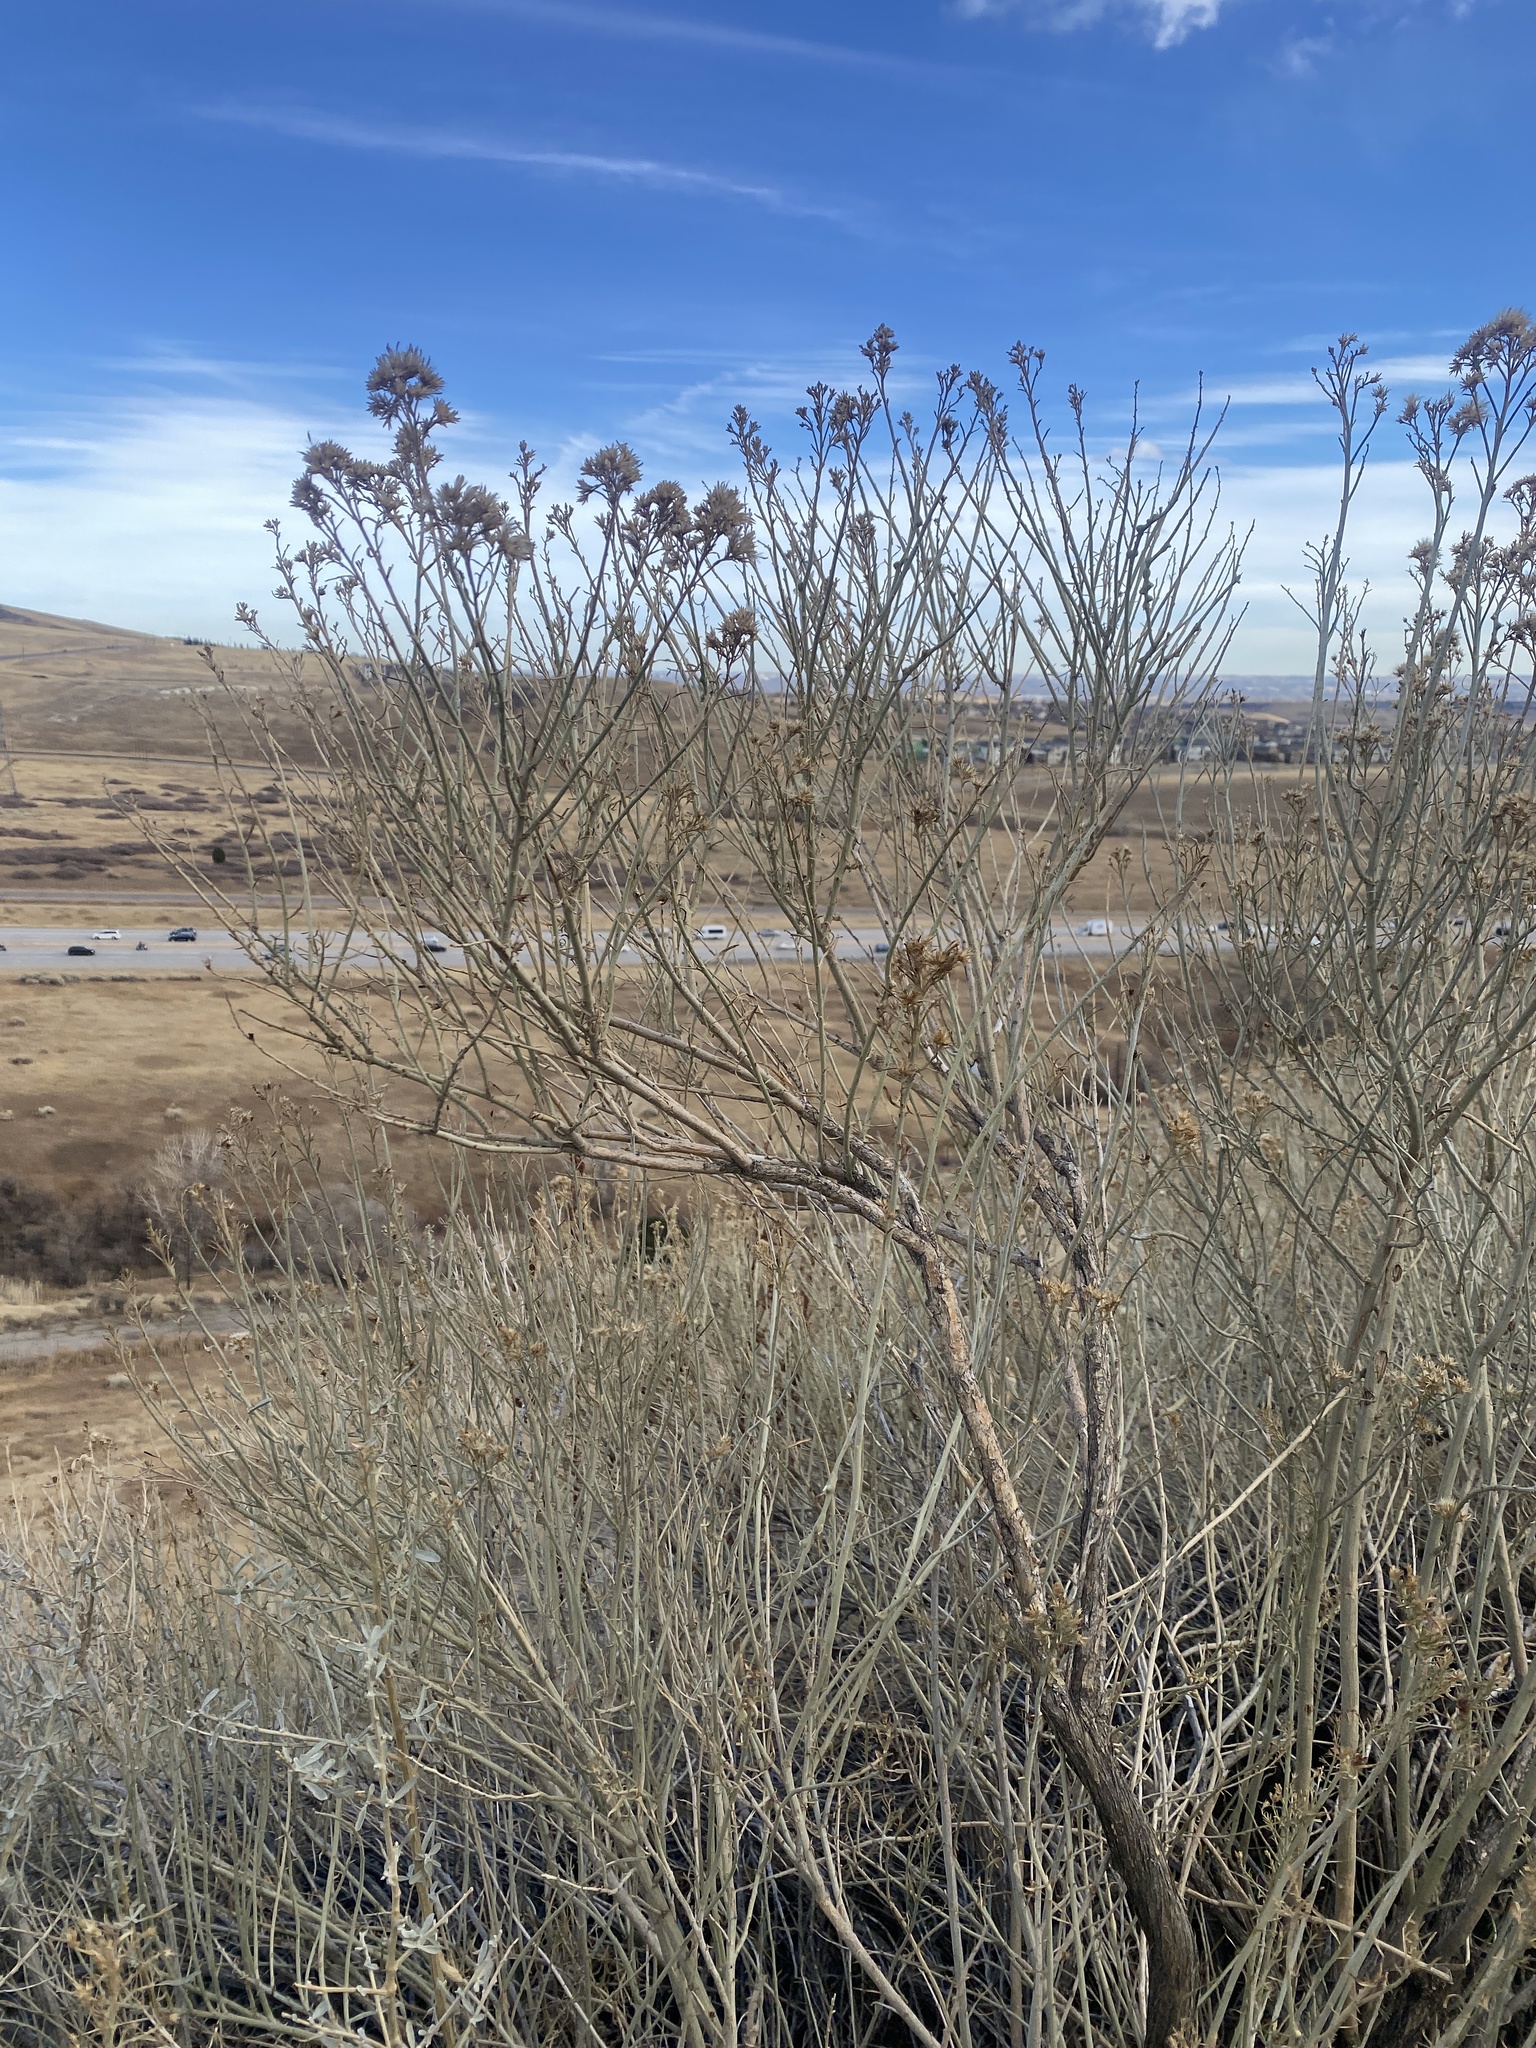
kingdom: Plantae
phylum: Tracheophyta
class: Magnoliopsida
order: Asterales
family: Asteraceae
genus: Ericameria
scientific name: Ericameria nauseosa
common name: Rubber rabbitbrush
